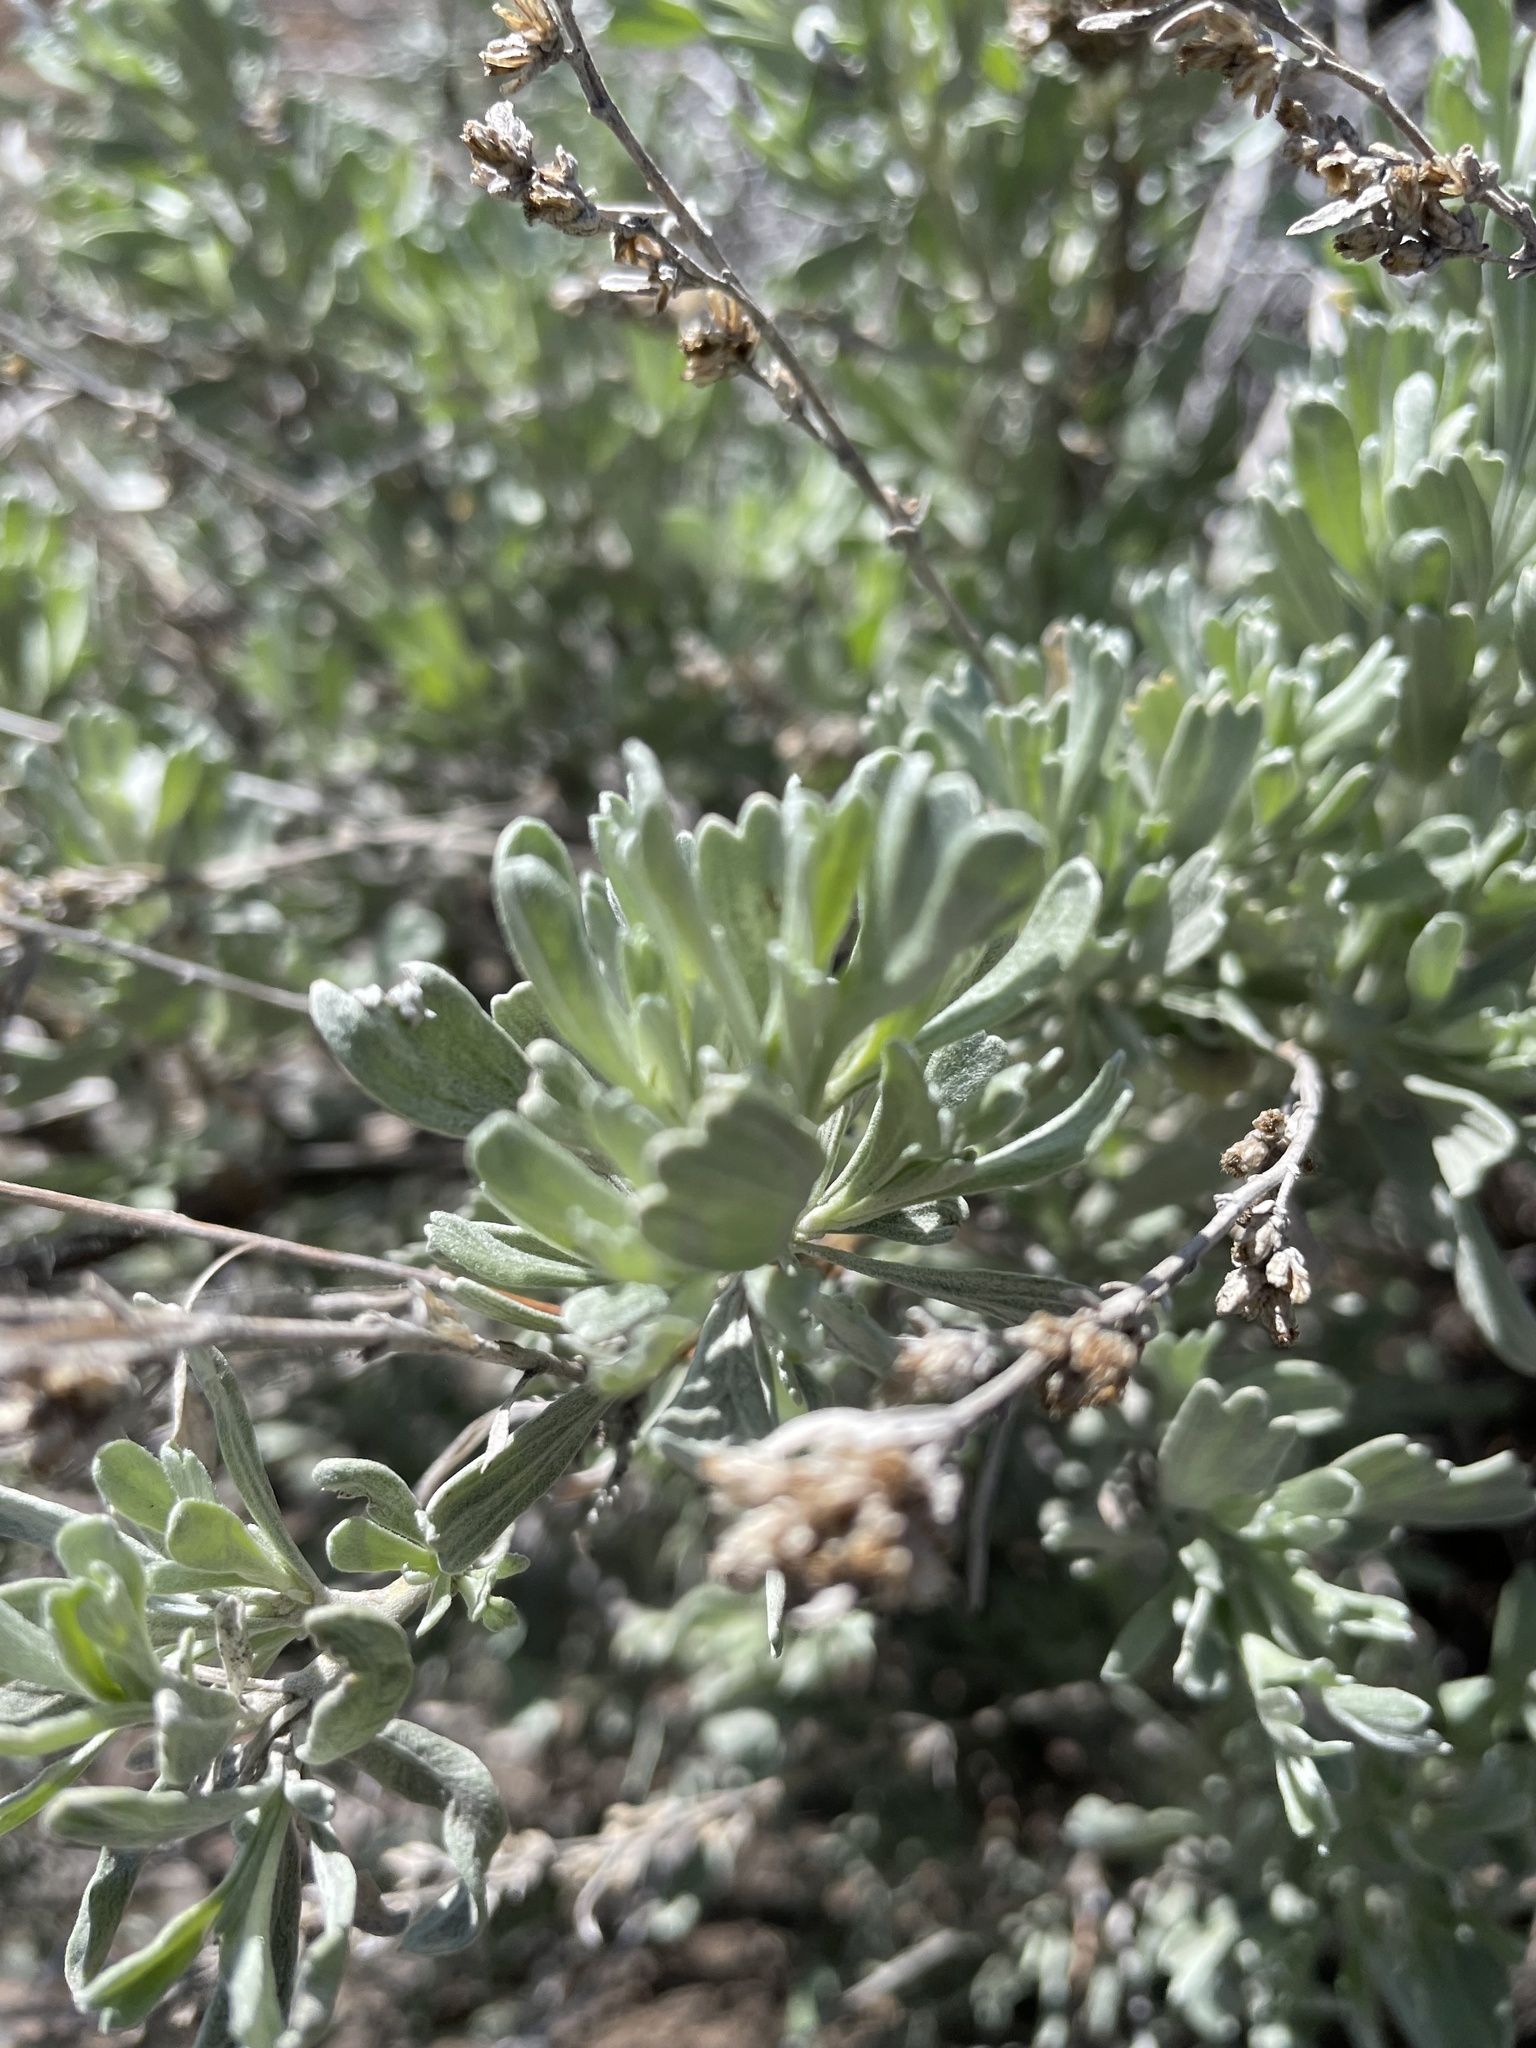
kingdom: Plantae
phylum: Tracheophyta
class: Magnoliopsida
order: Asterales
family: Asteraceae
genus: Artemisia
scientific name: Artemisia tridentata
